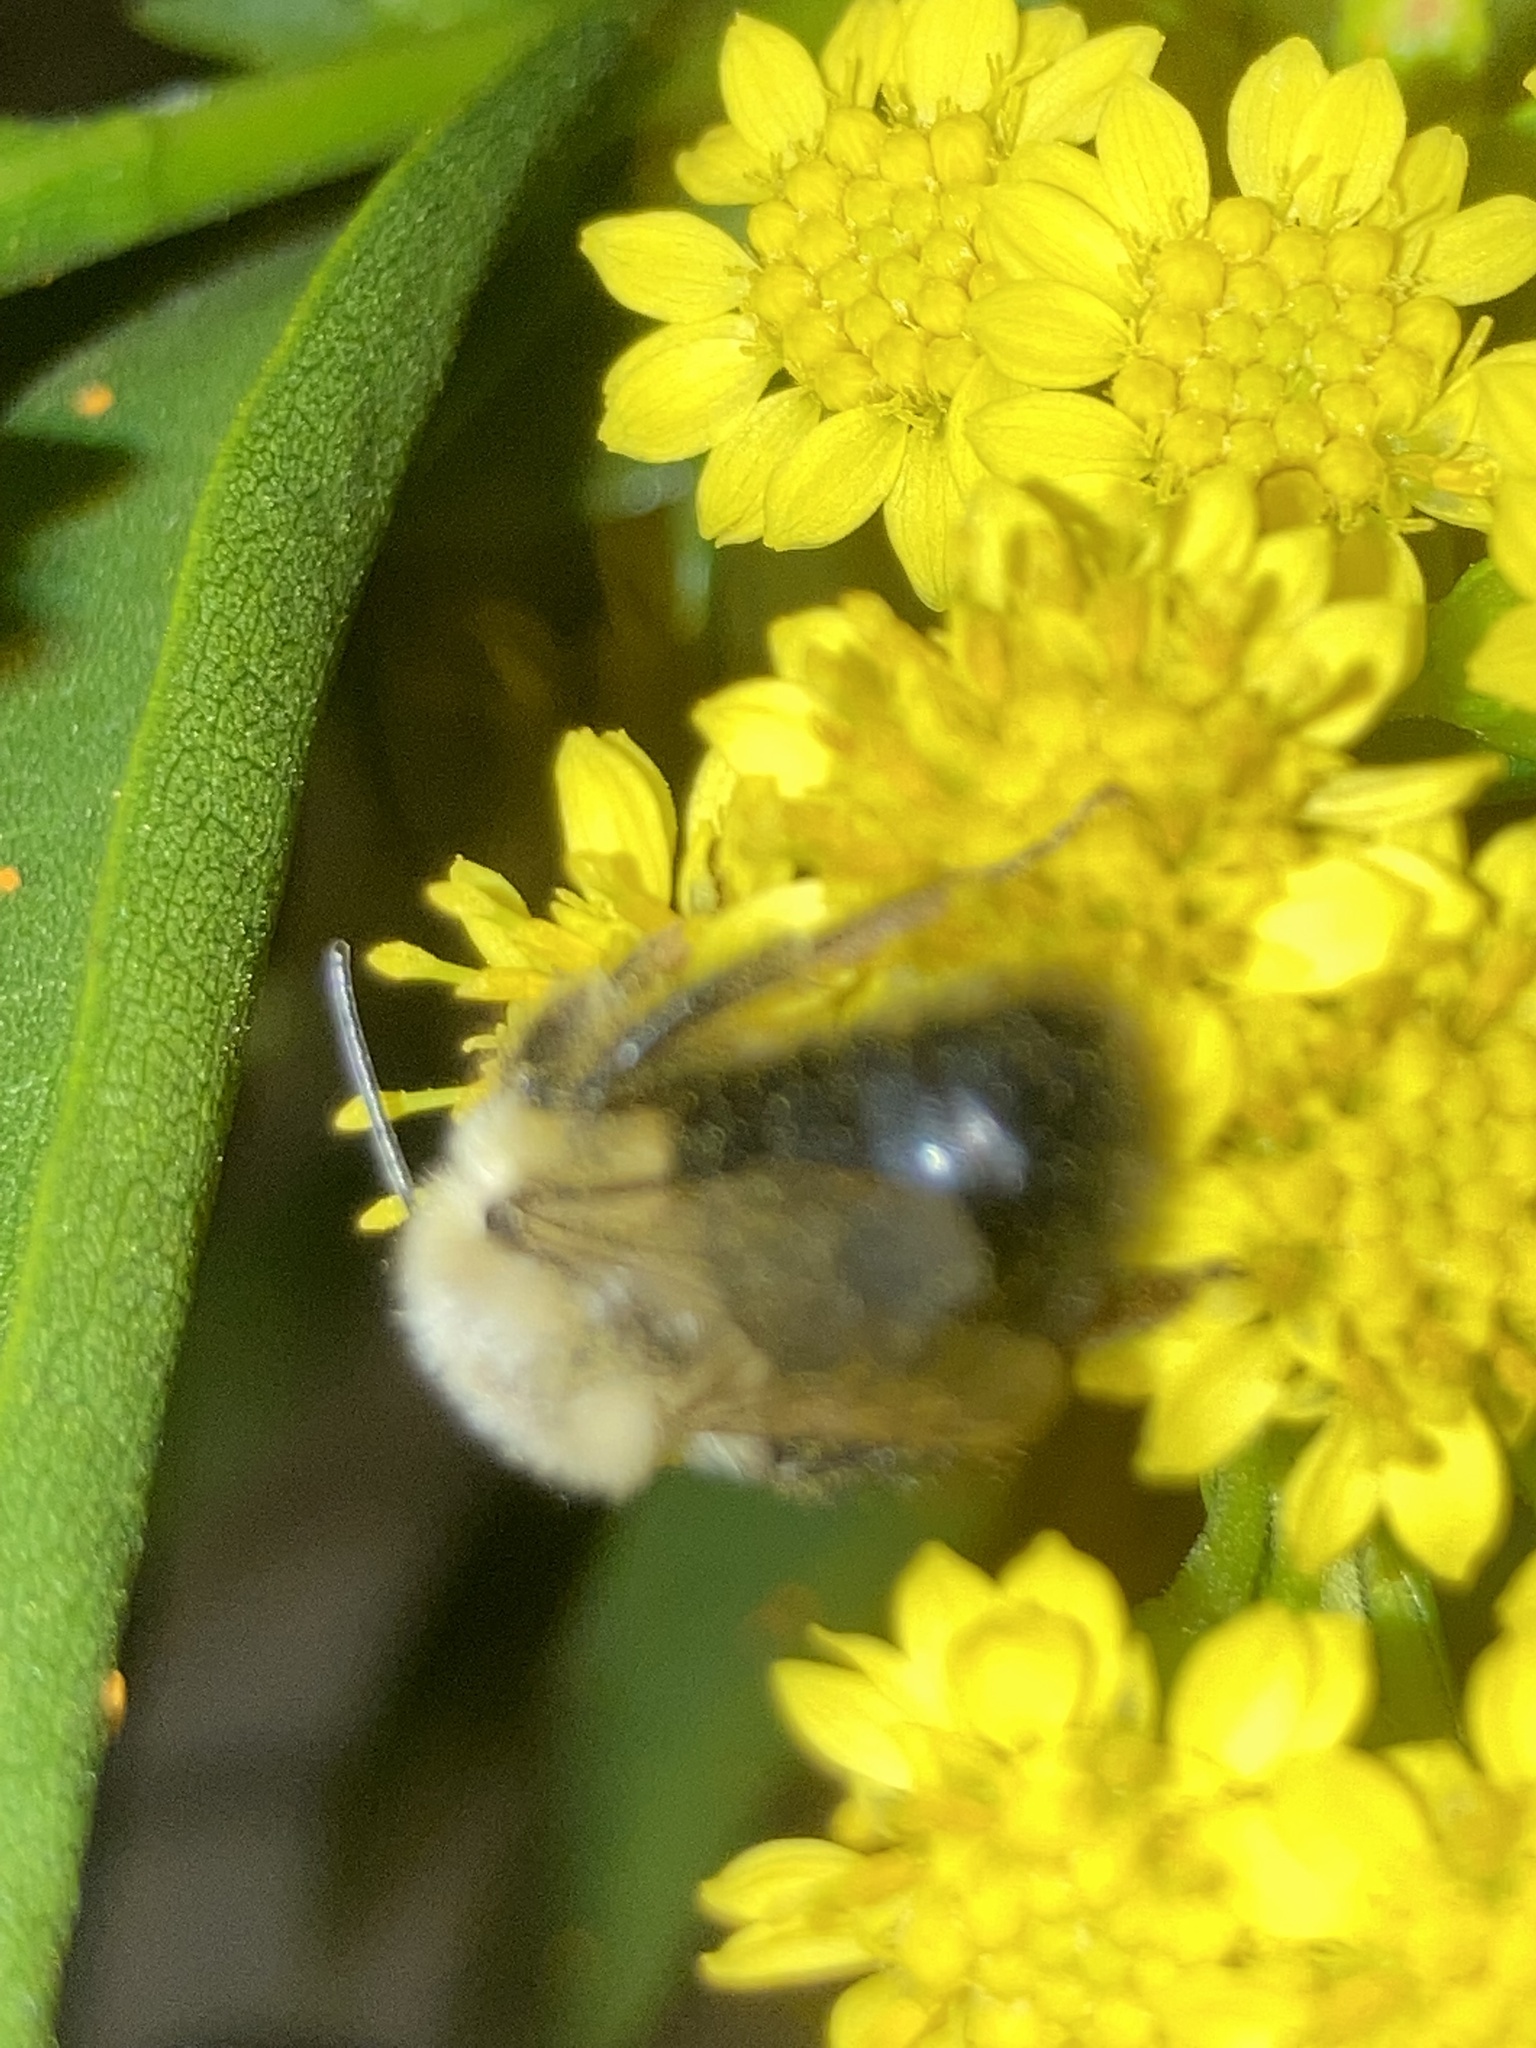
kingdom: Animalia
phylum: Arthropoda
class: Insecta
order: Hymenoptera
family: Apidae
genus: Bombus
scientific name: Bombus impatiens
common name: Common eastern bumble bee
